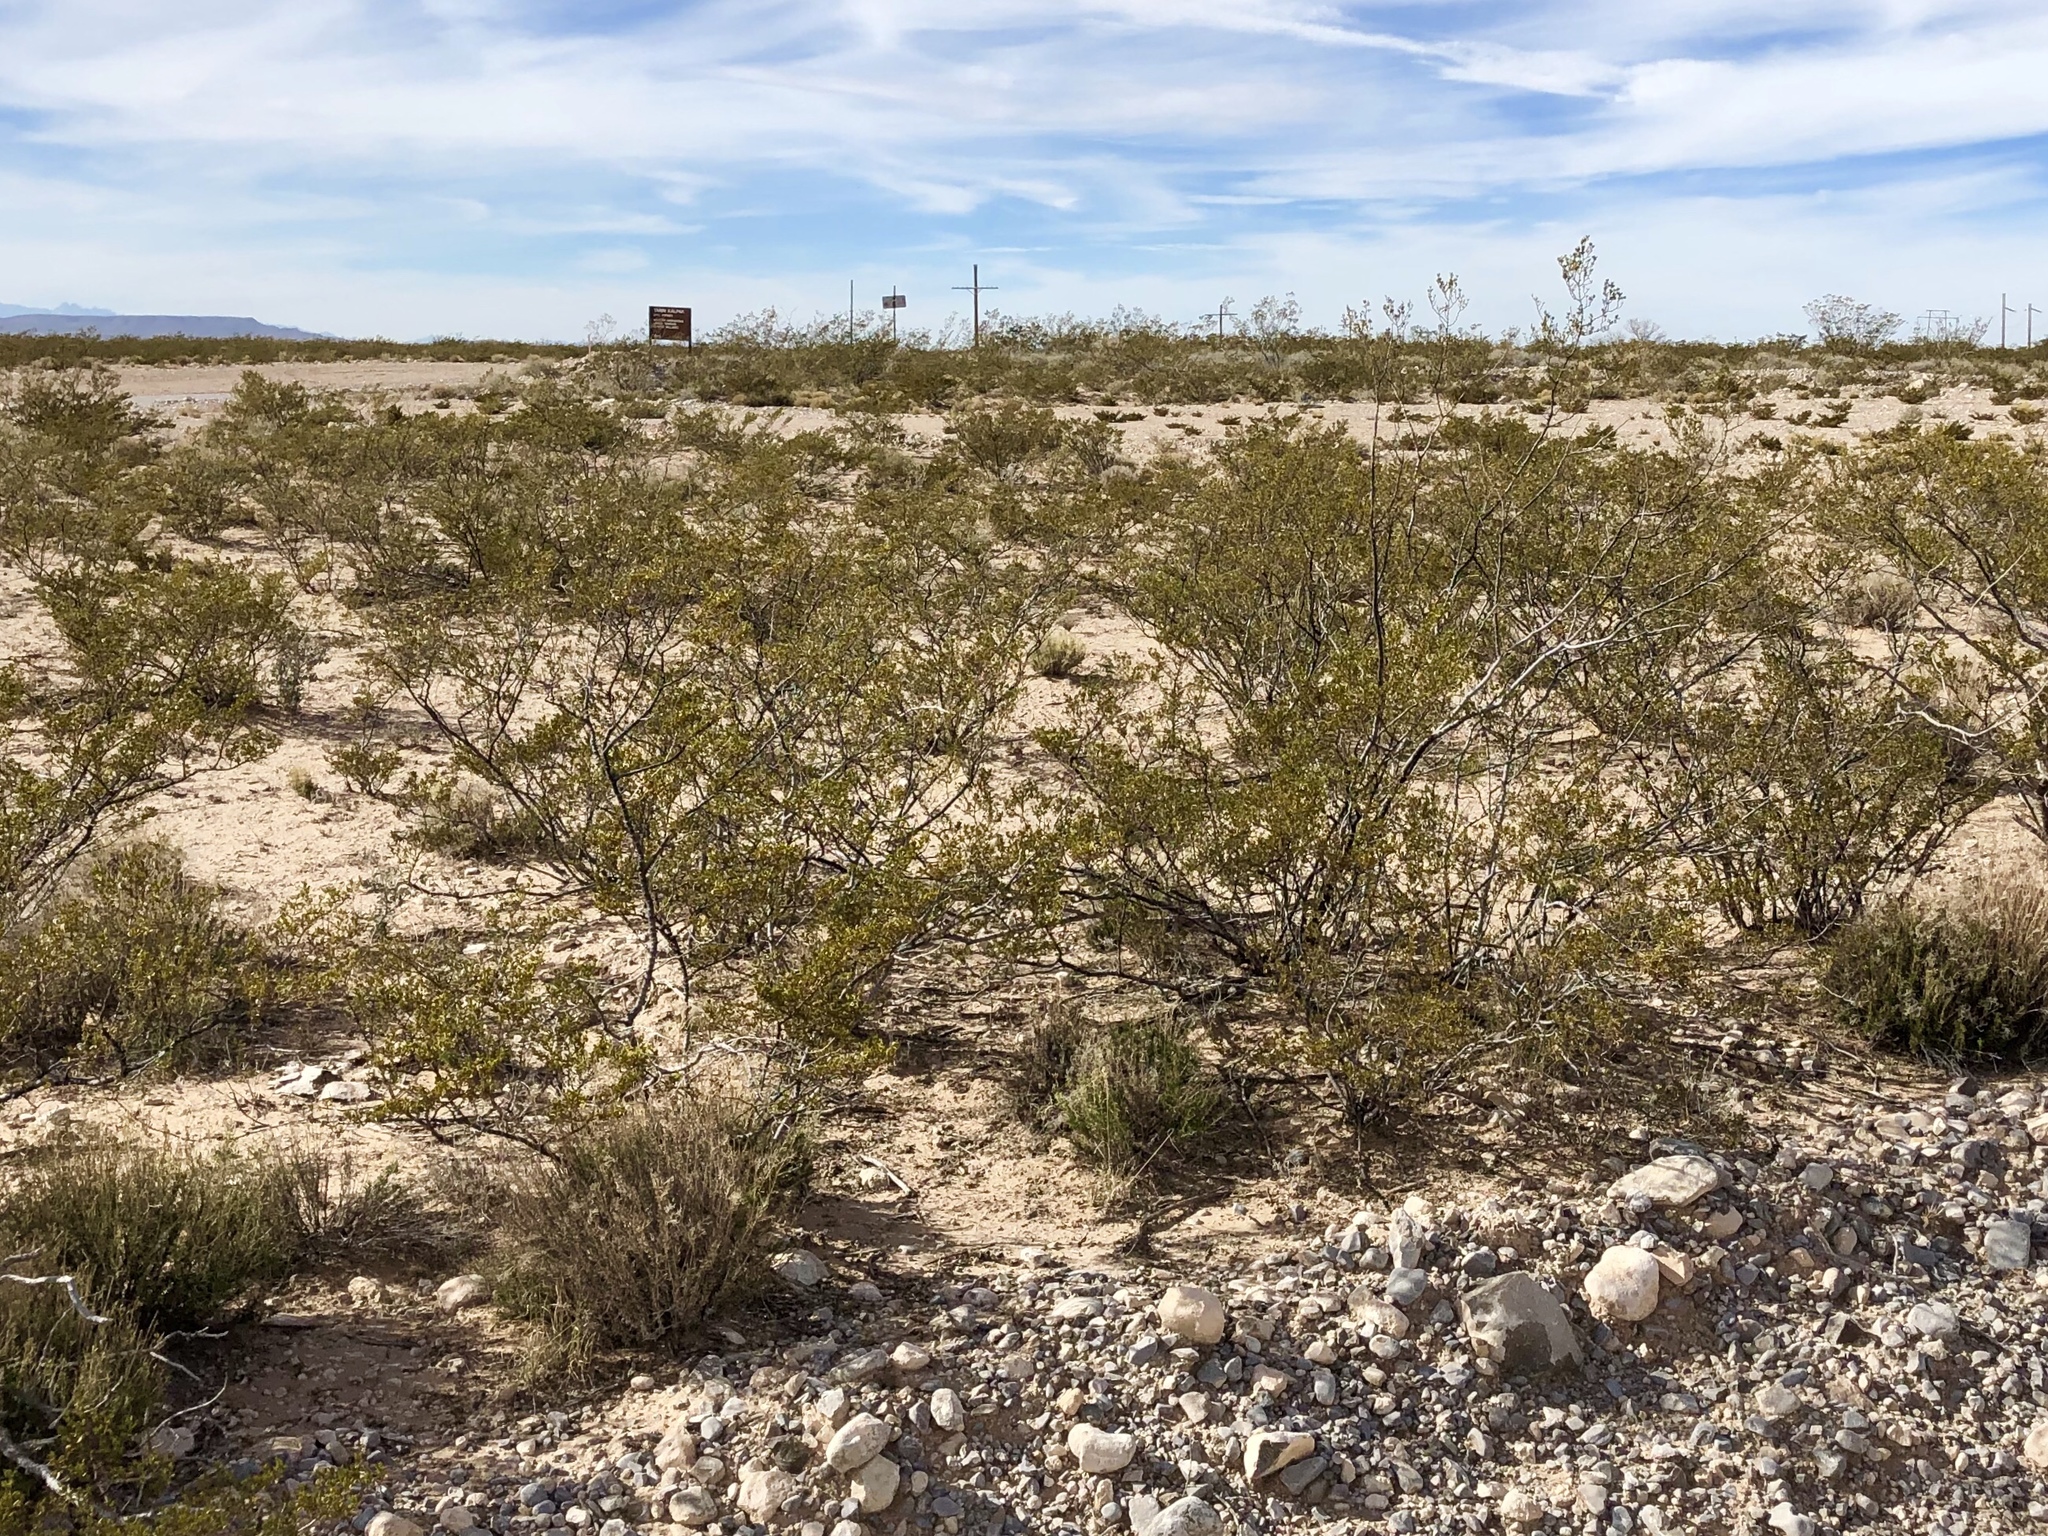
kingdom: Plantae
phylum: Tracheophyta
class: Magnoliopsida
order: Zygophyllales
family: Zygophyllaceae
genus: Larrea
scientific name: Larrea tridentata
